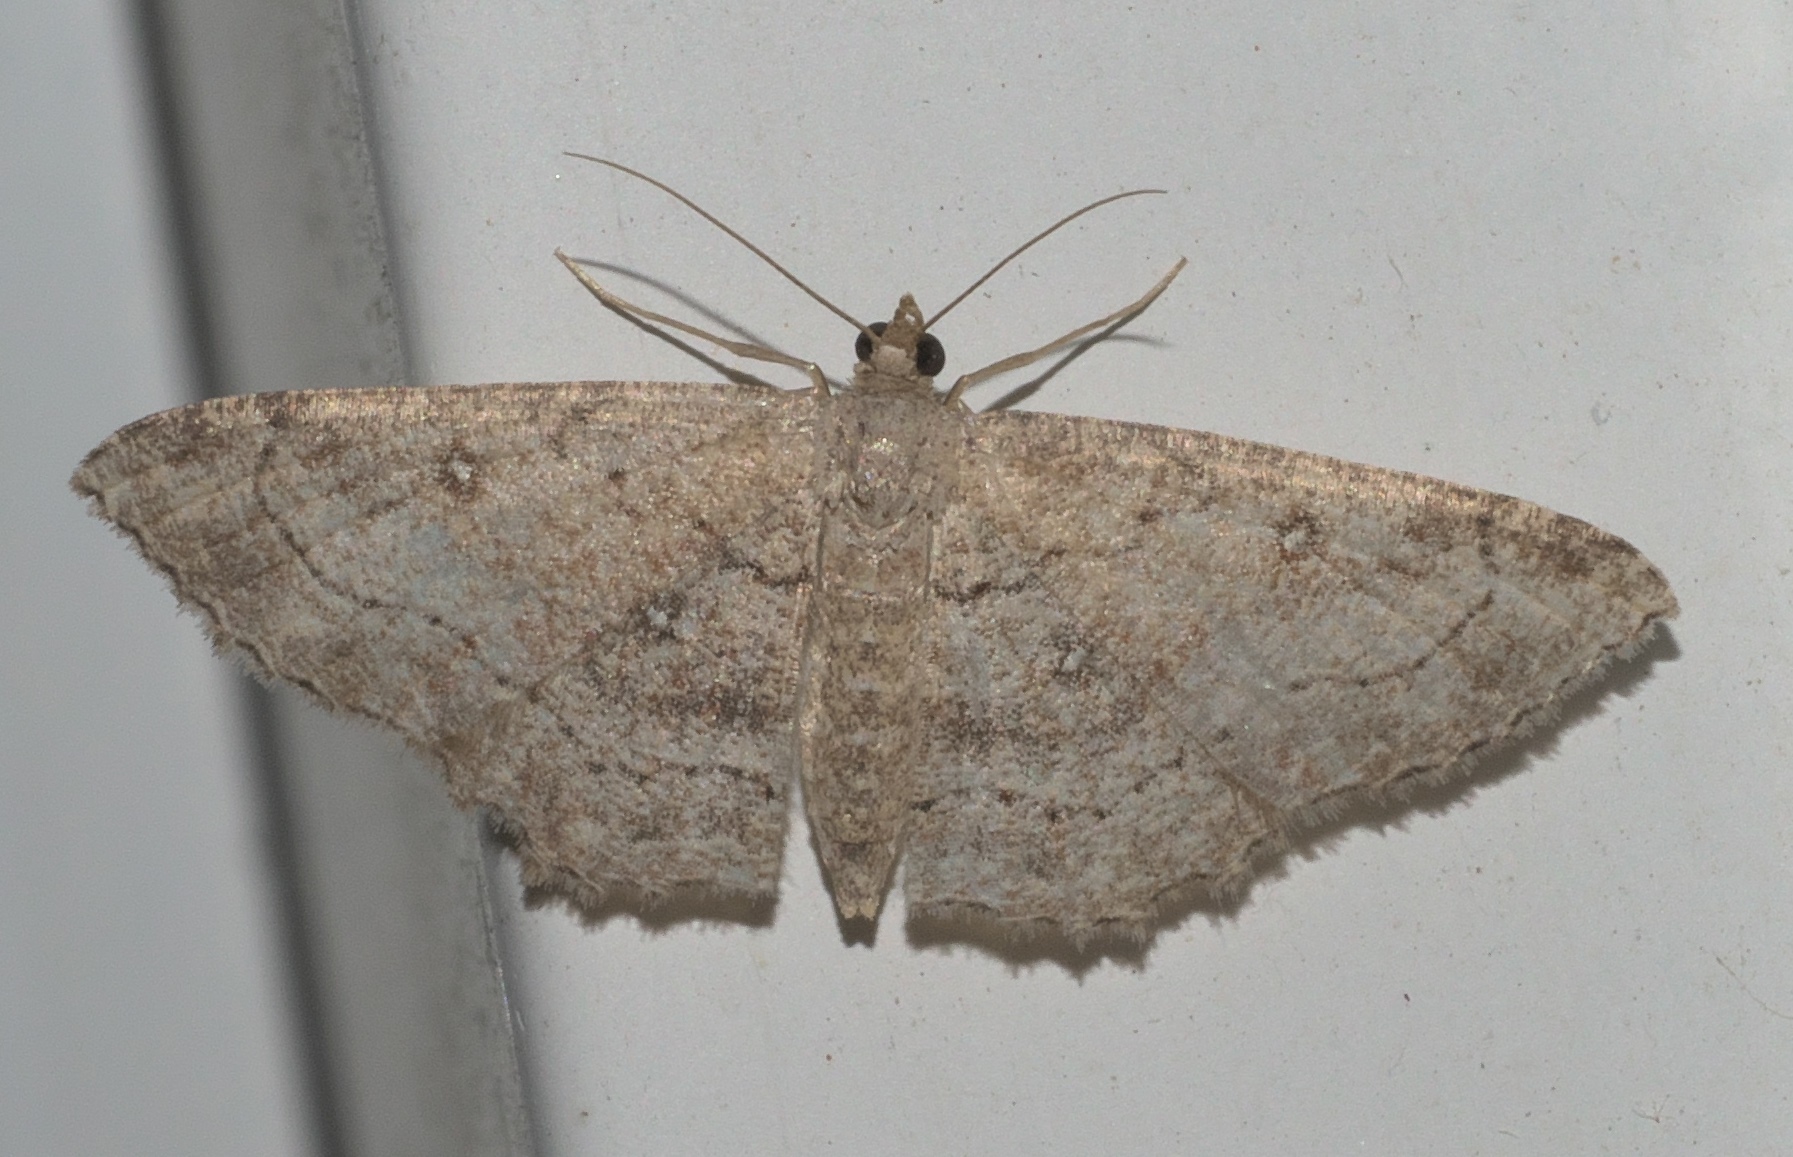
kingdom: Animalia
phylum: Arthropoda
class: Insecta
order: Lepidoptera
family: Geometridae
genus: Cyclophora
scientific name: Cyclophora nanaria
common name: Cankerworm
